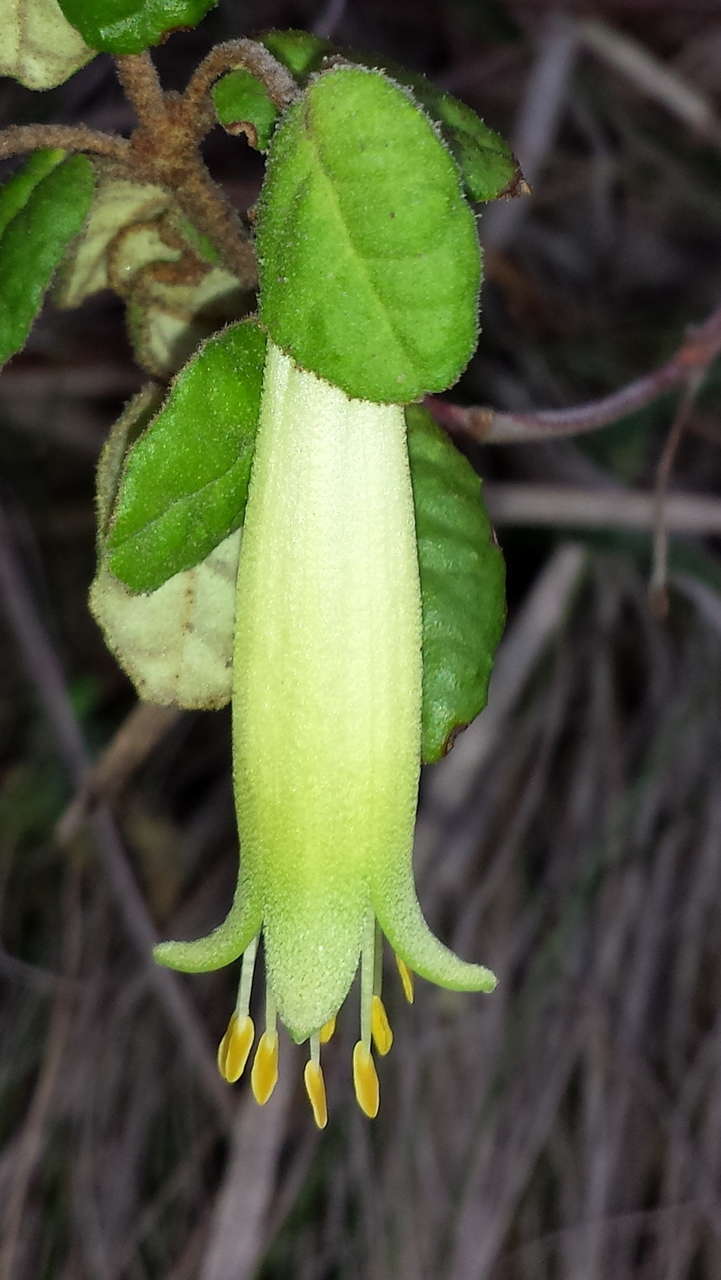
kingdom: Plantae
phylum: Tracheophyta
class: Magnoliopsida
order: Sapindales
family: Rutaceae
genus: Correa
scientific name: Correa reflexa
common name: Common correa
